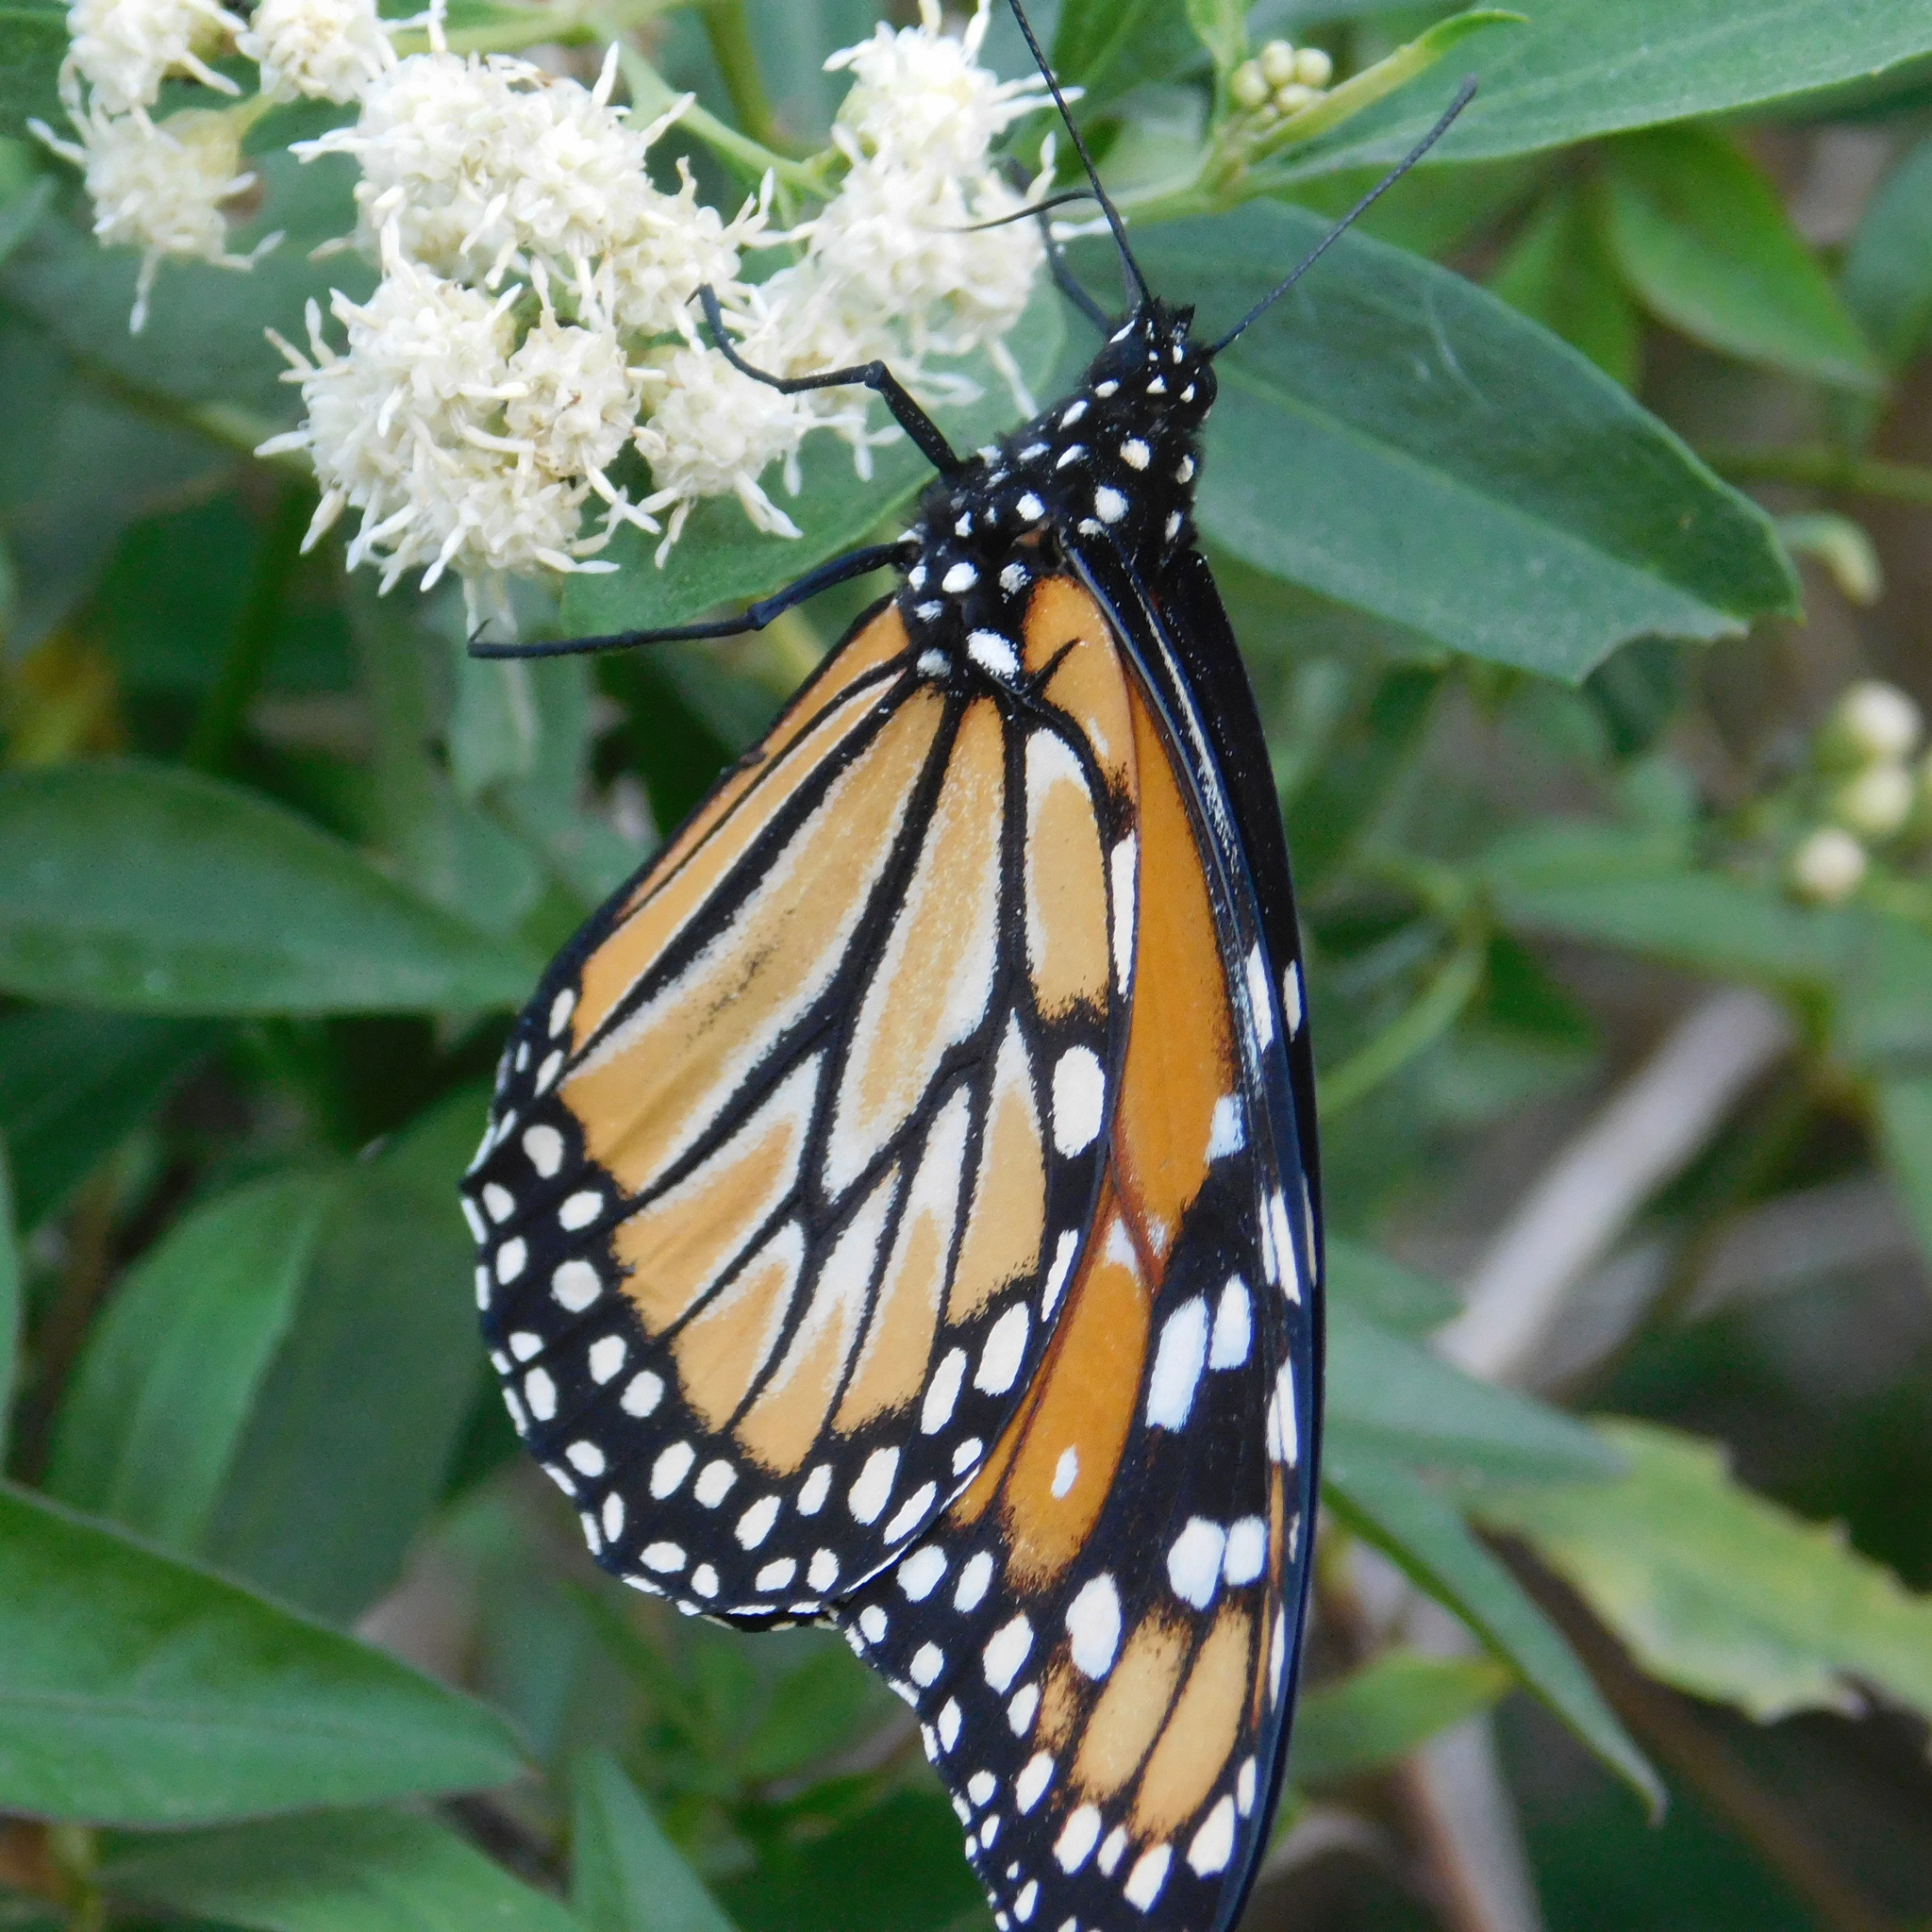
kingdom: Animalia
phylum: Arthropoda
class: Insecta
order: Lepidoptera
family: Nymphalidae
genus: Danaus
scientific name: Danaus erippus
